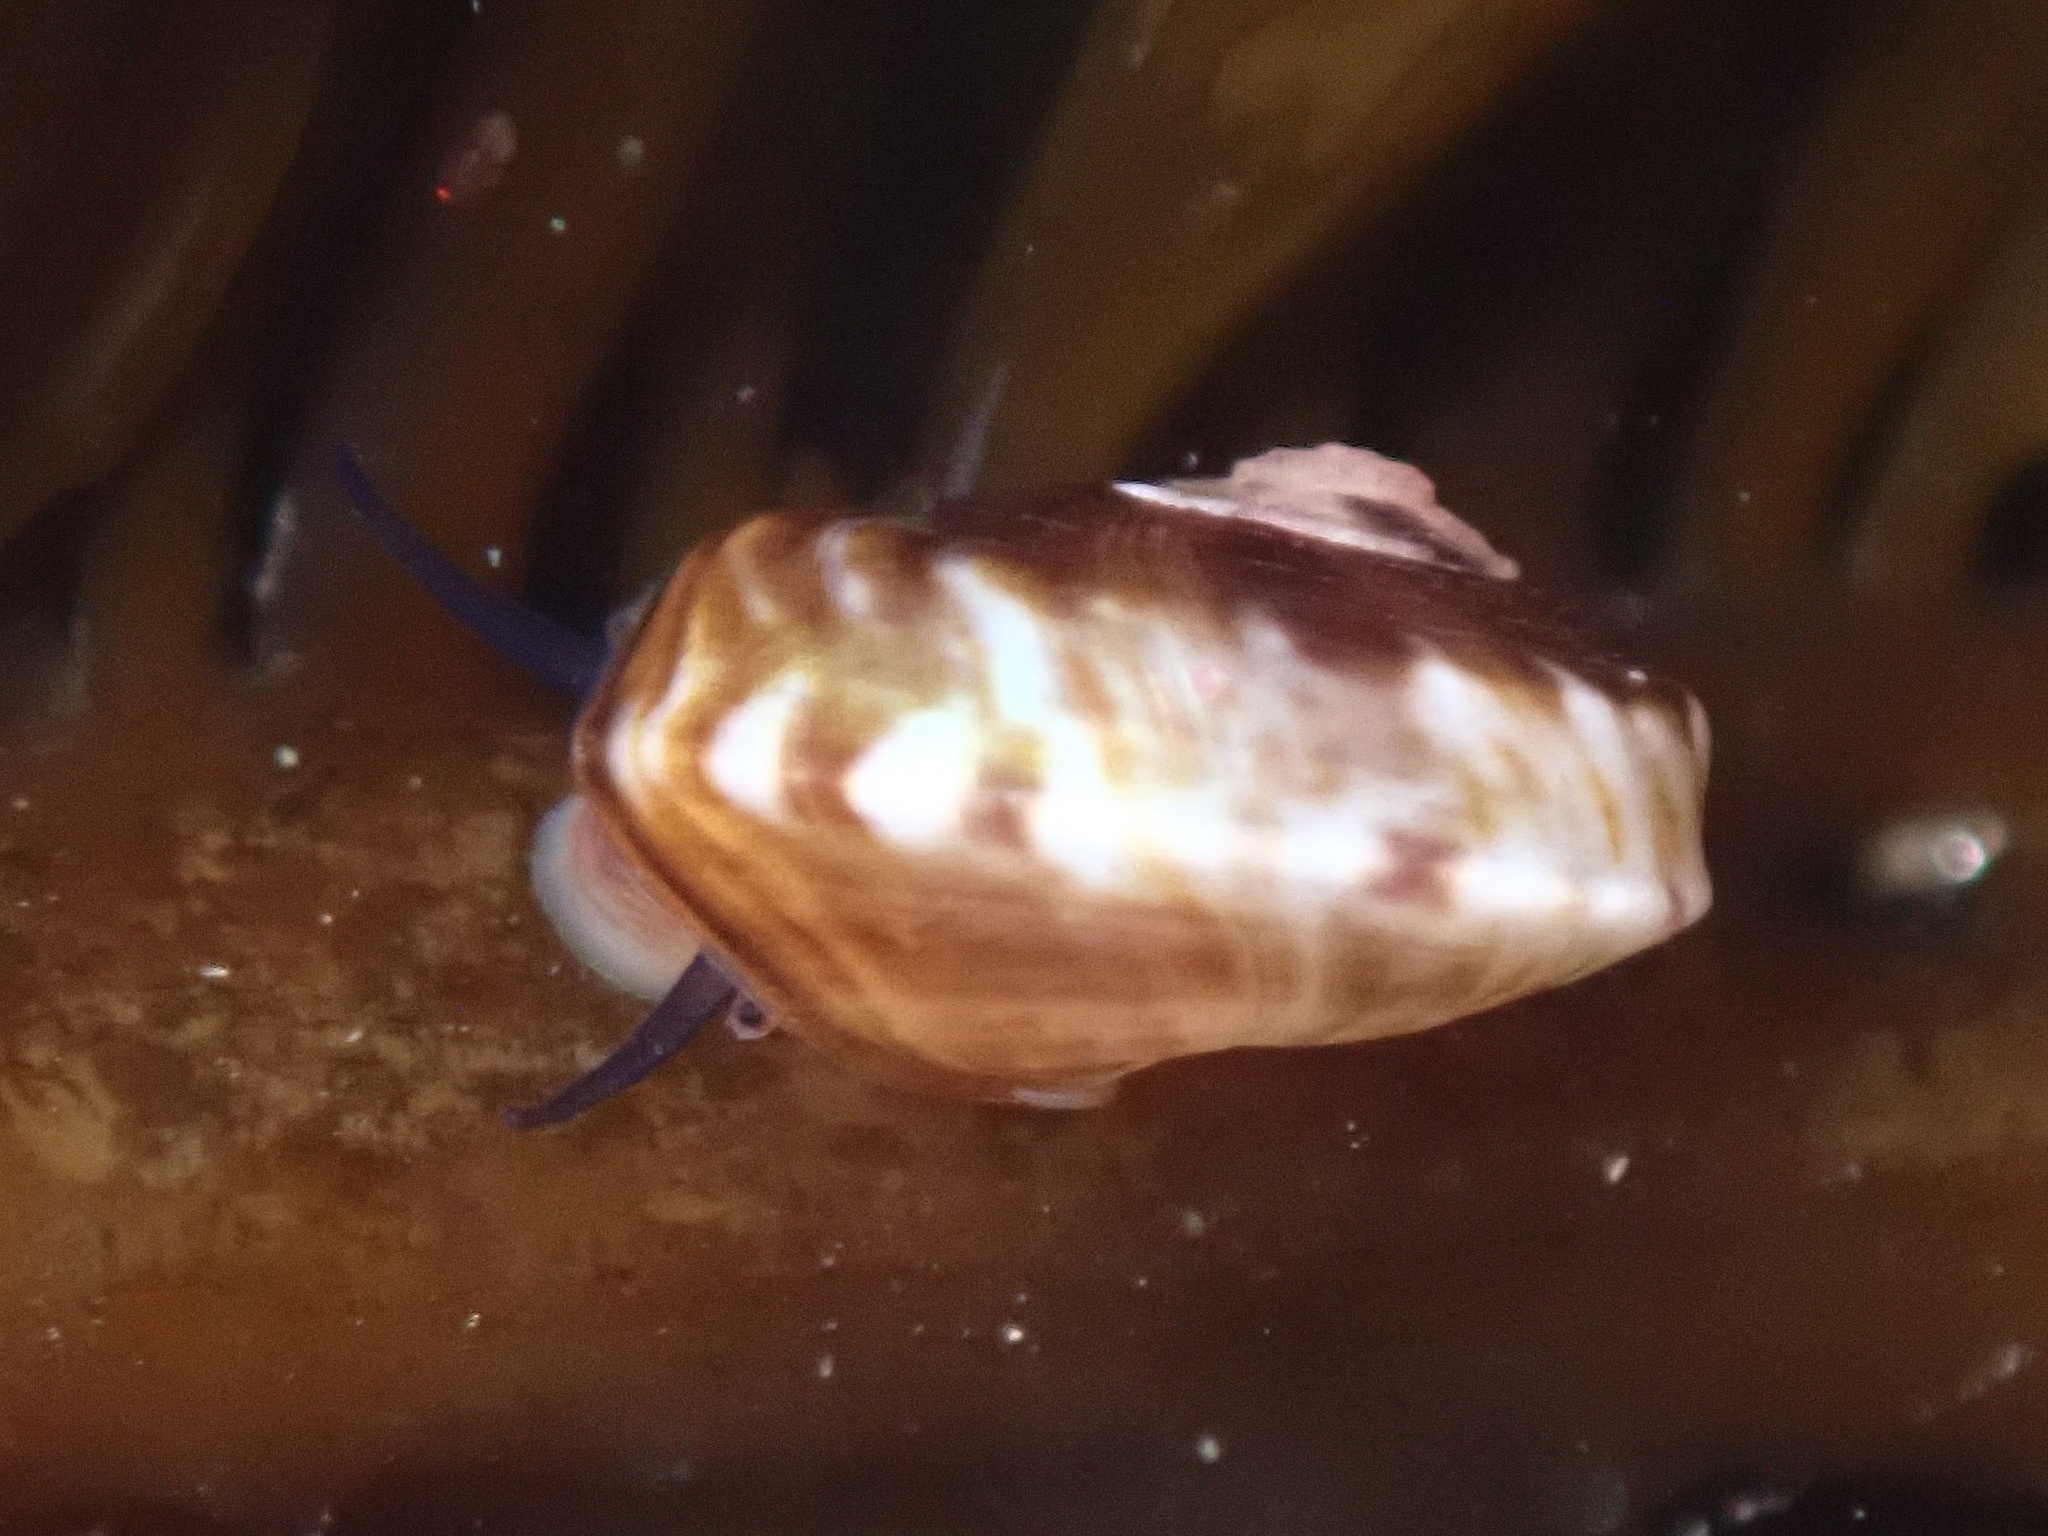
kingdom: Animalia
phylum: Mollusca
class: Gastropoda
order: Trochida
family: Tegulidae
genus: Norrisia
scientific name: Norrisia norrisii
